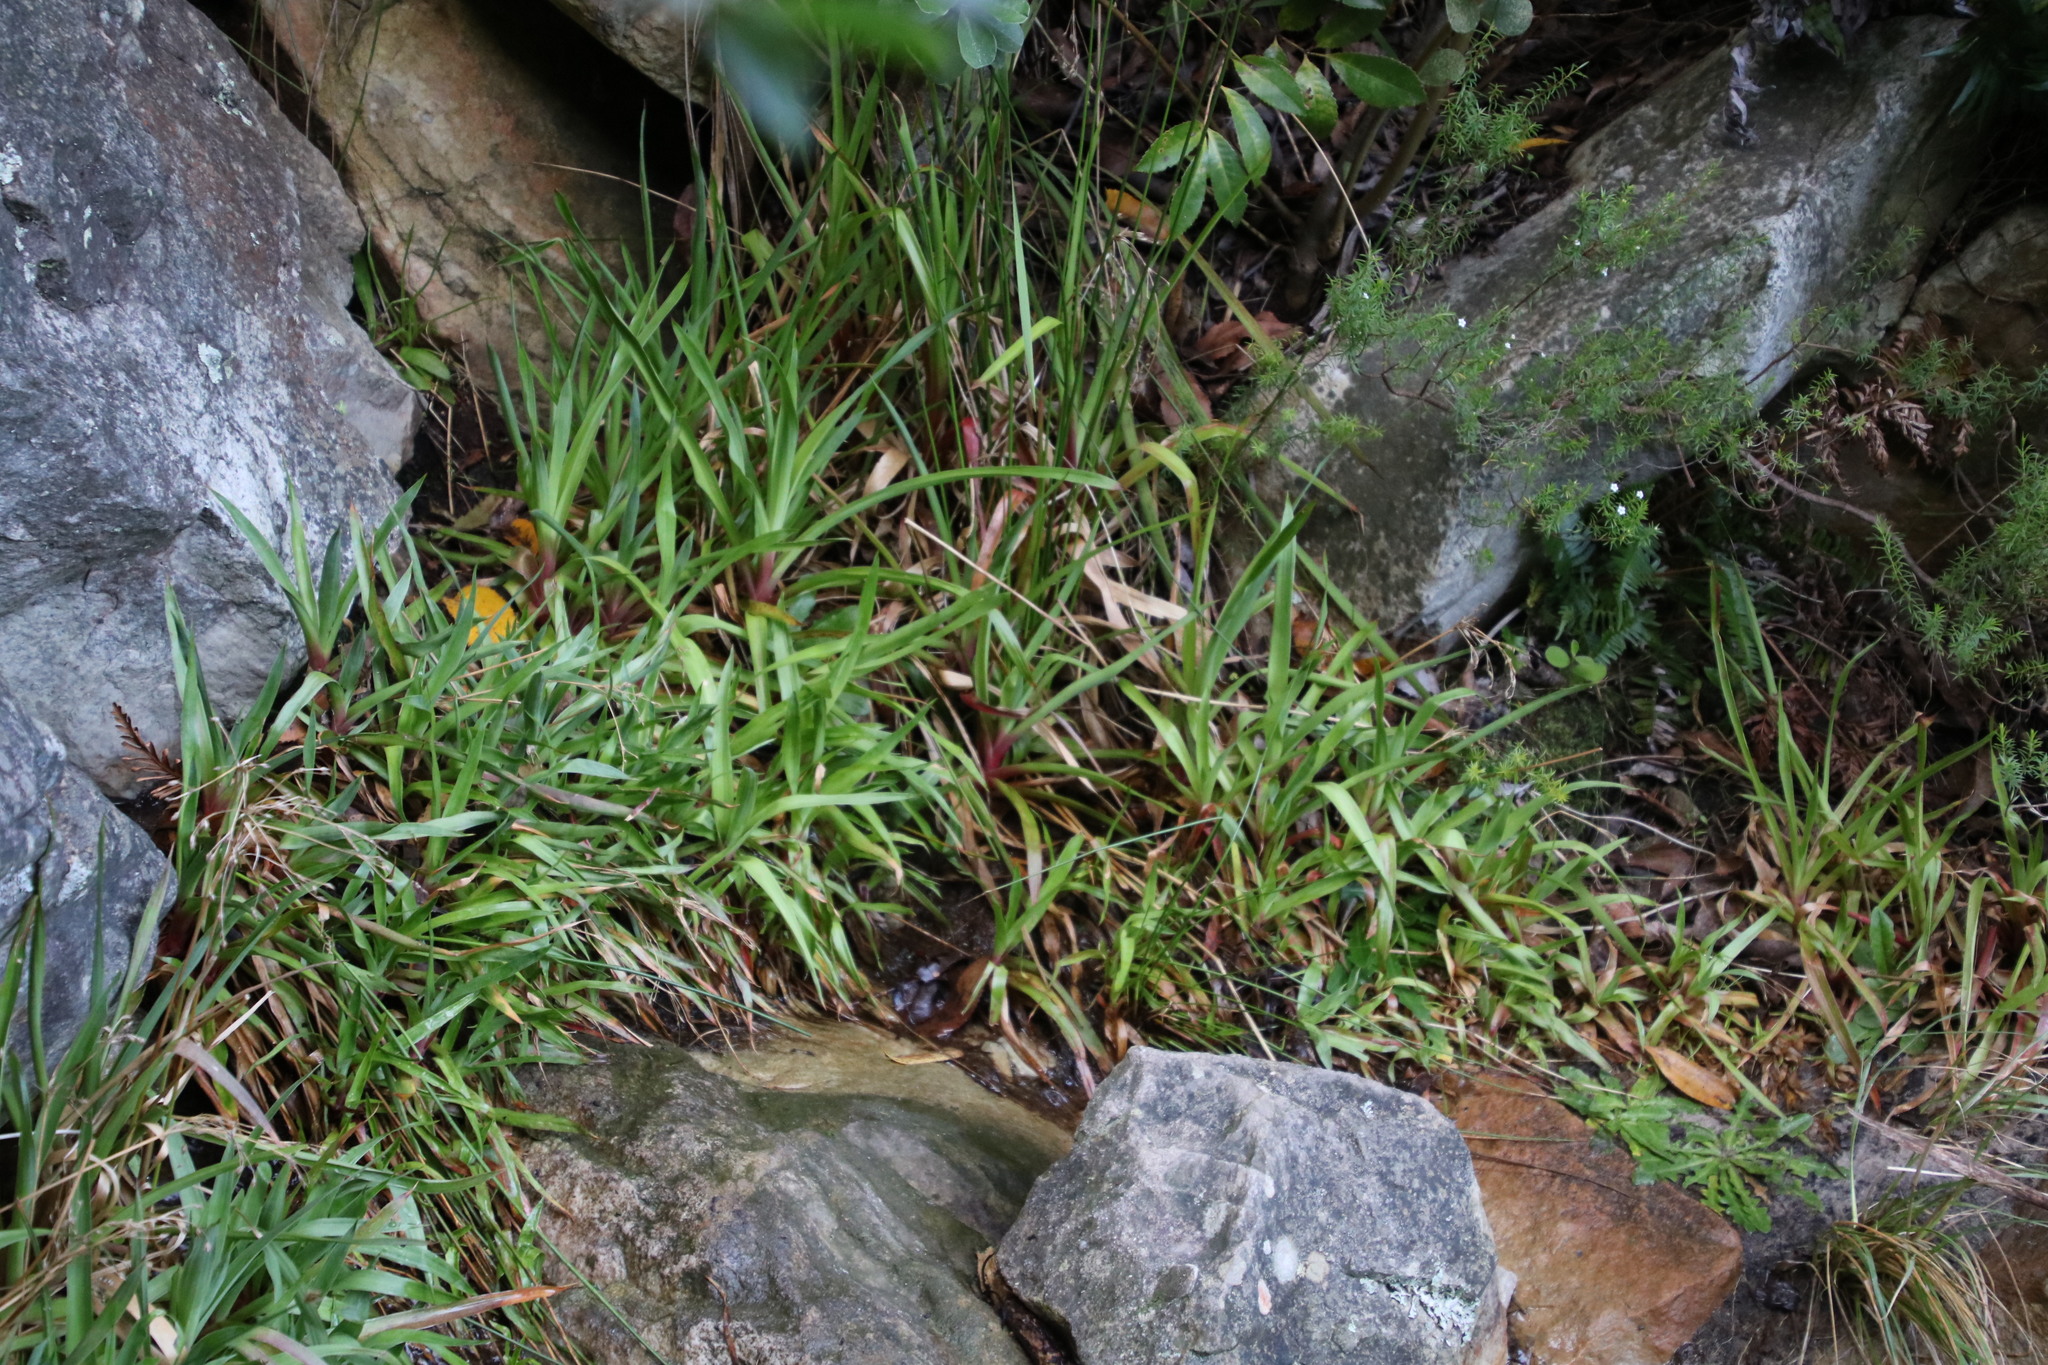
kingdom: Plantae
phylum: Tracheophyta
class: Liliopsida
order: Poales
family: Juncaceae
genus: Juncus
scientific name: Juncus lomatophyllus
